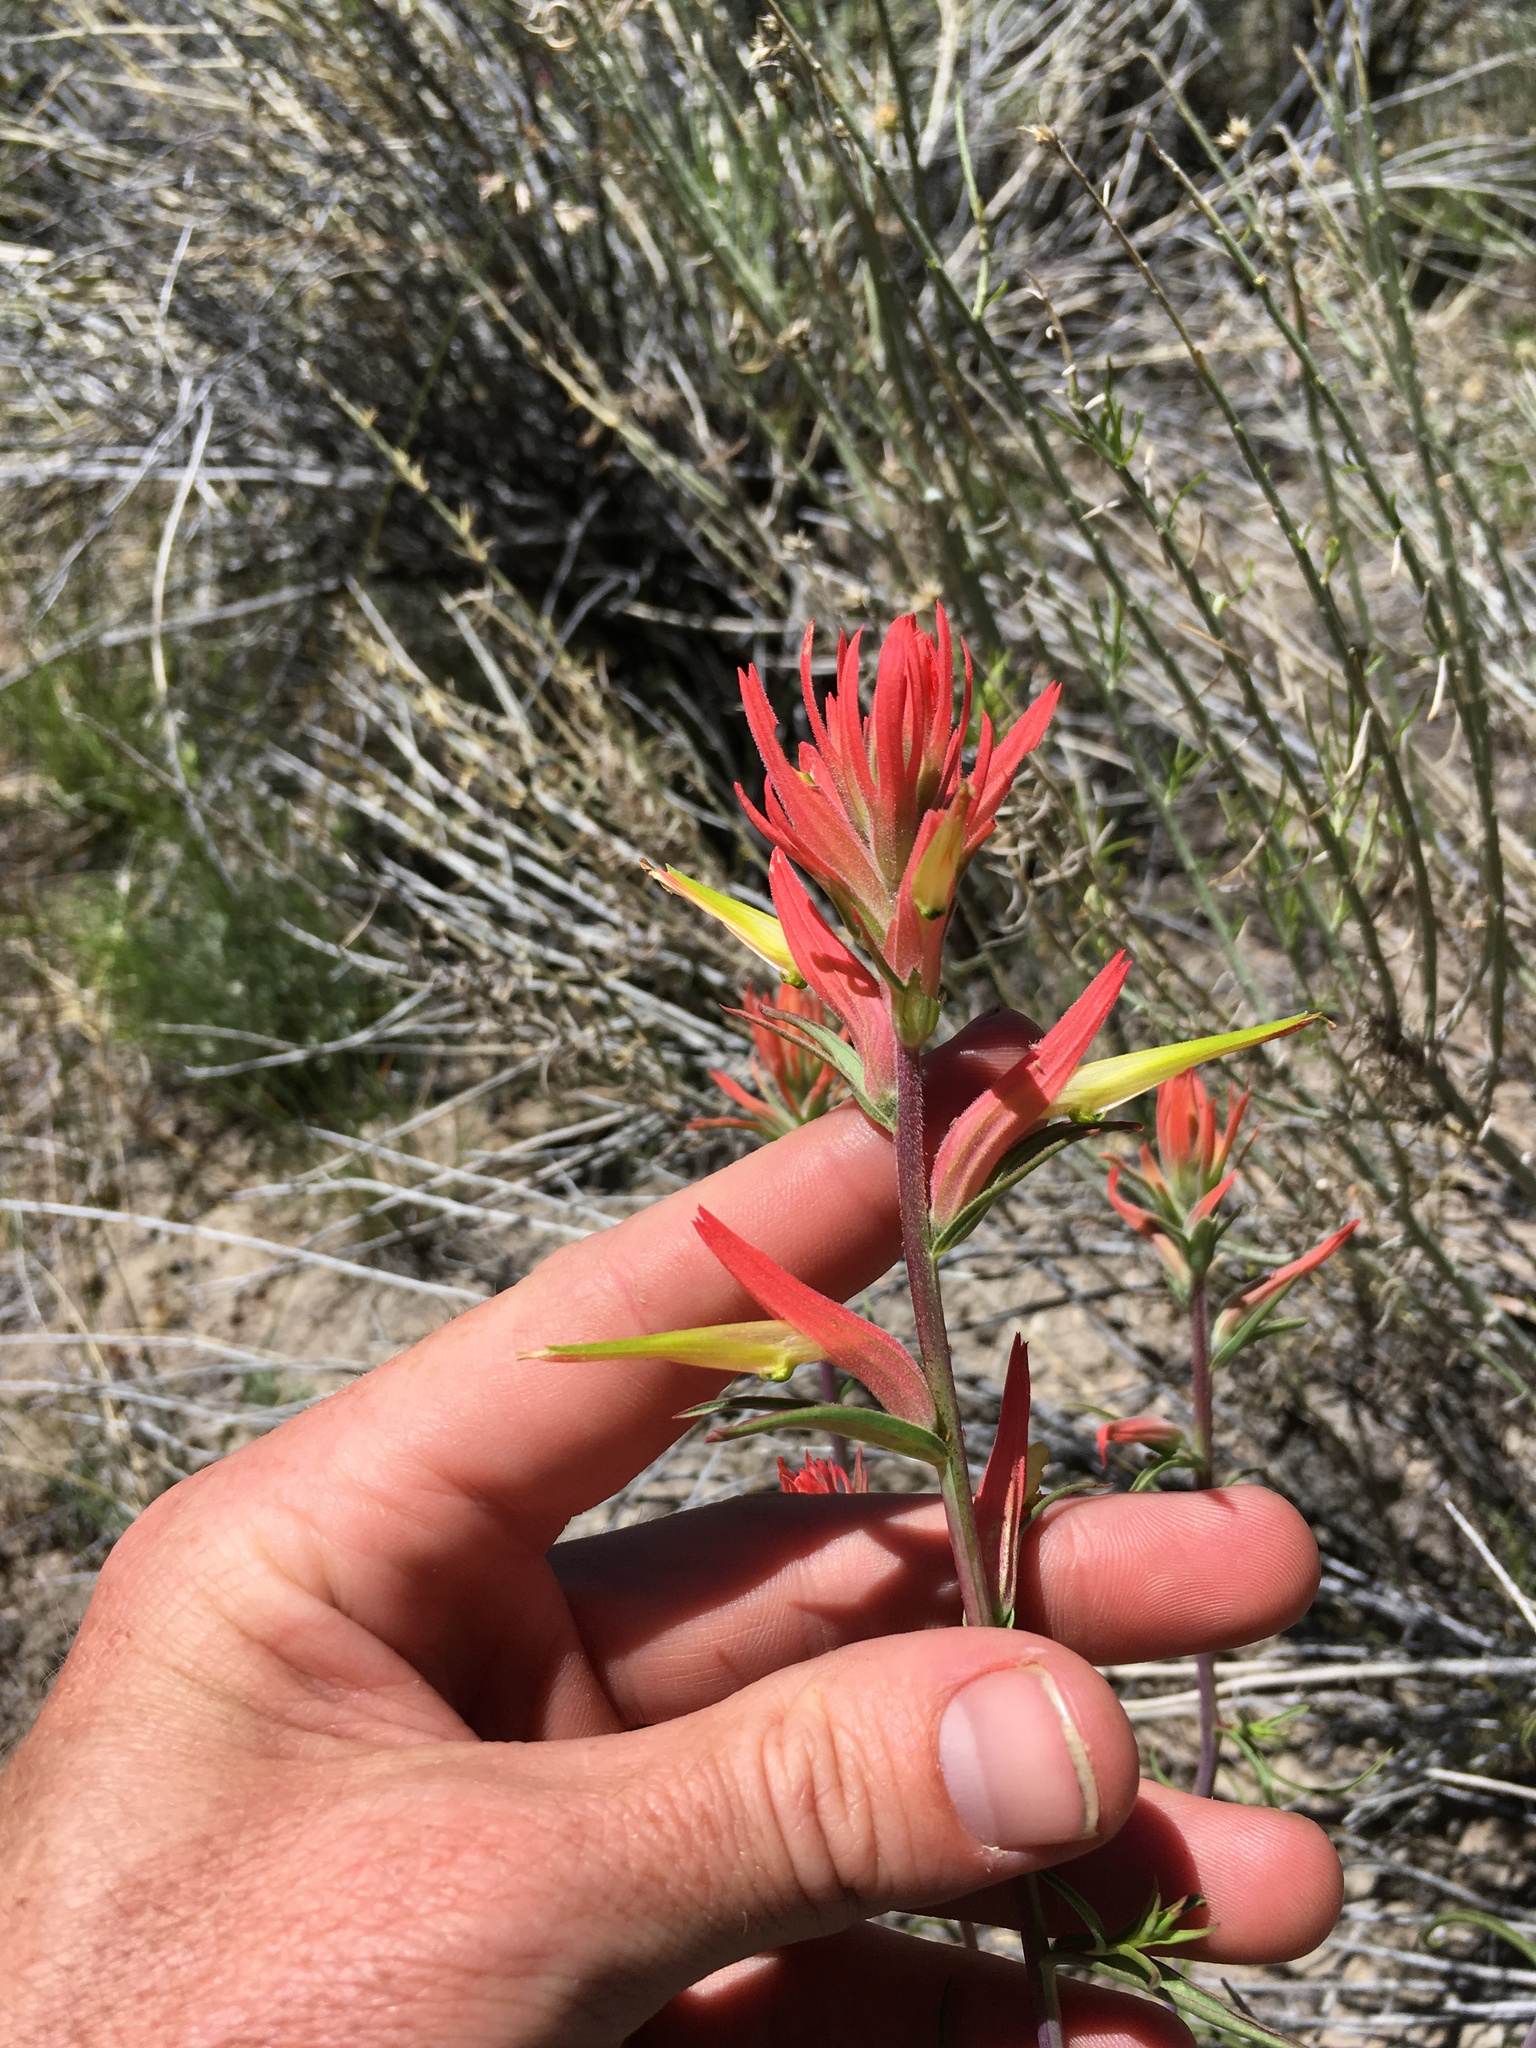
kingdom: Plantae
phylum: Tracheophyta
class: Magnoliopsida
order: Lamiales
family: Orobanchaceae
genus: Castilleja
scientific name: Castilleja linariifolia
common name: Wyoming paintbrush
